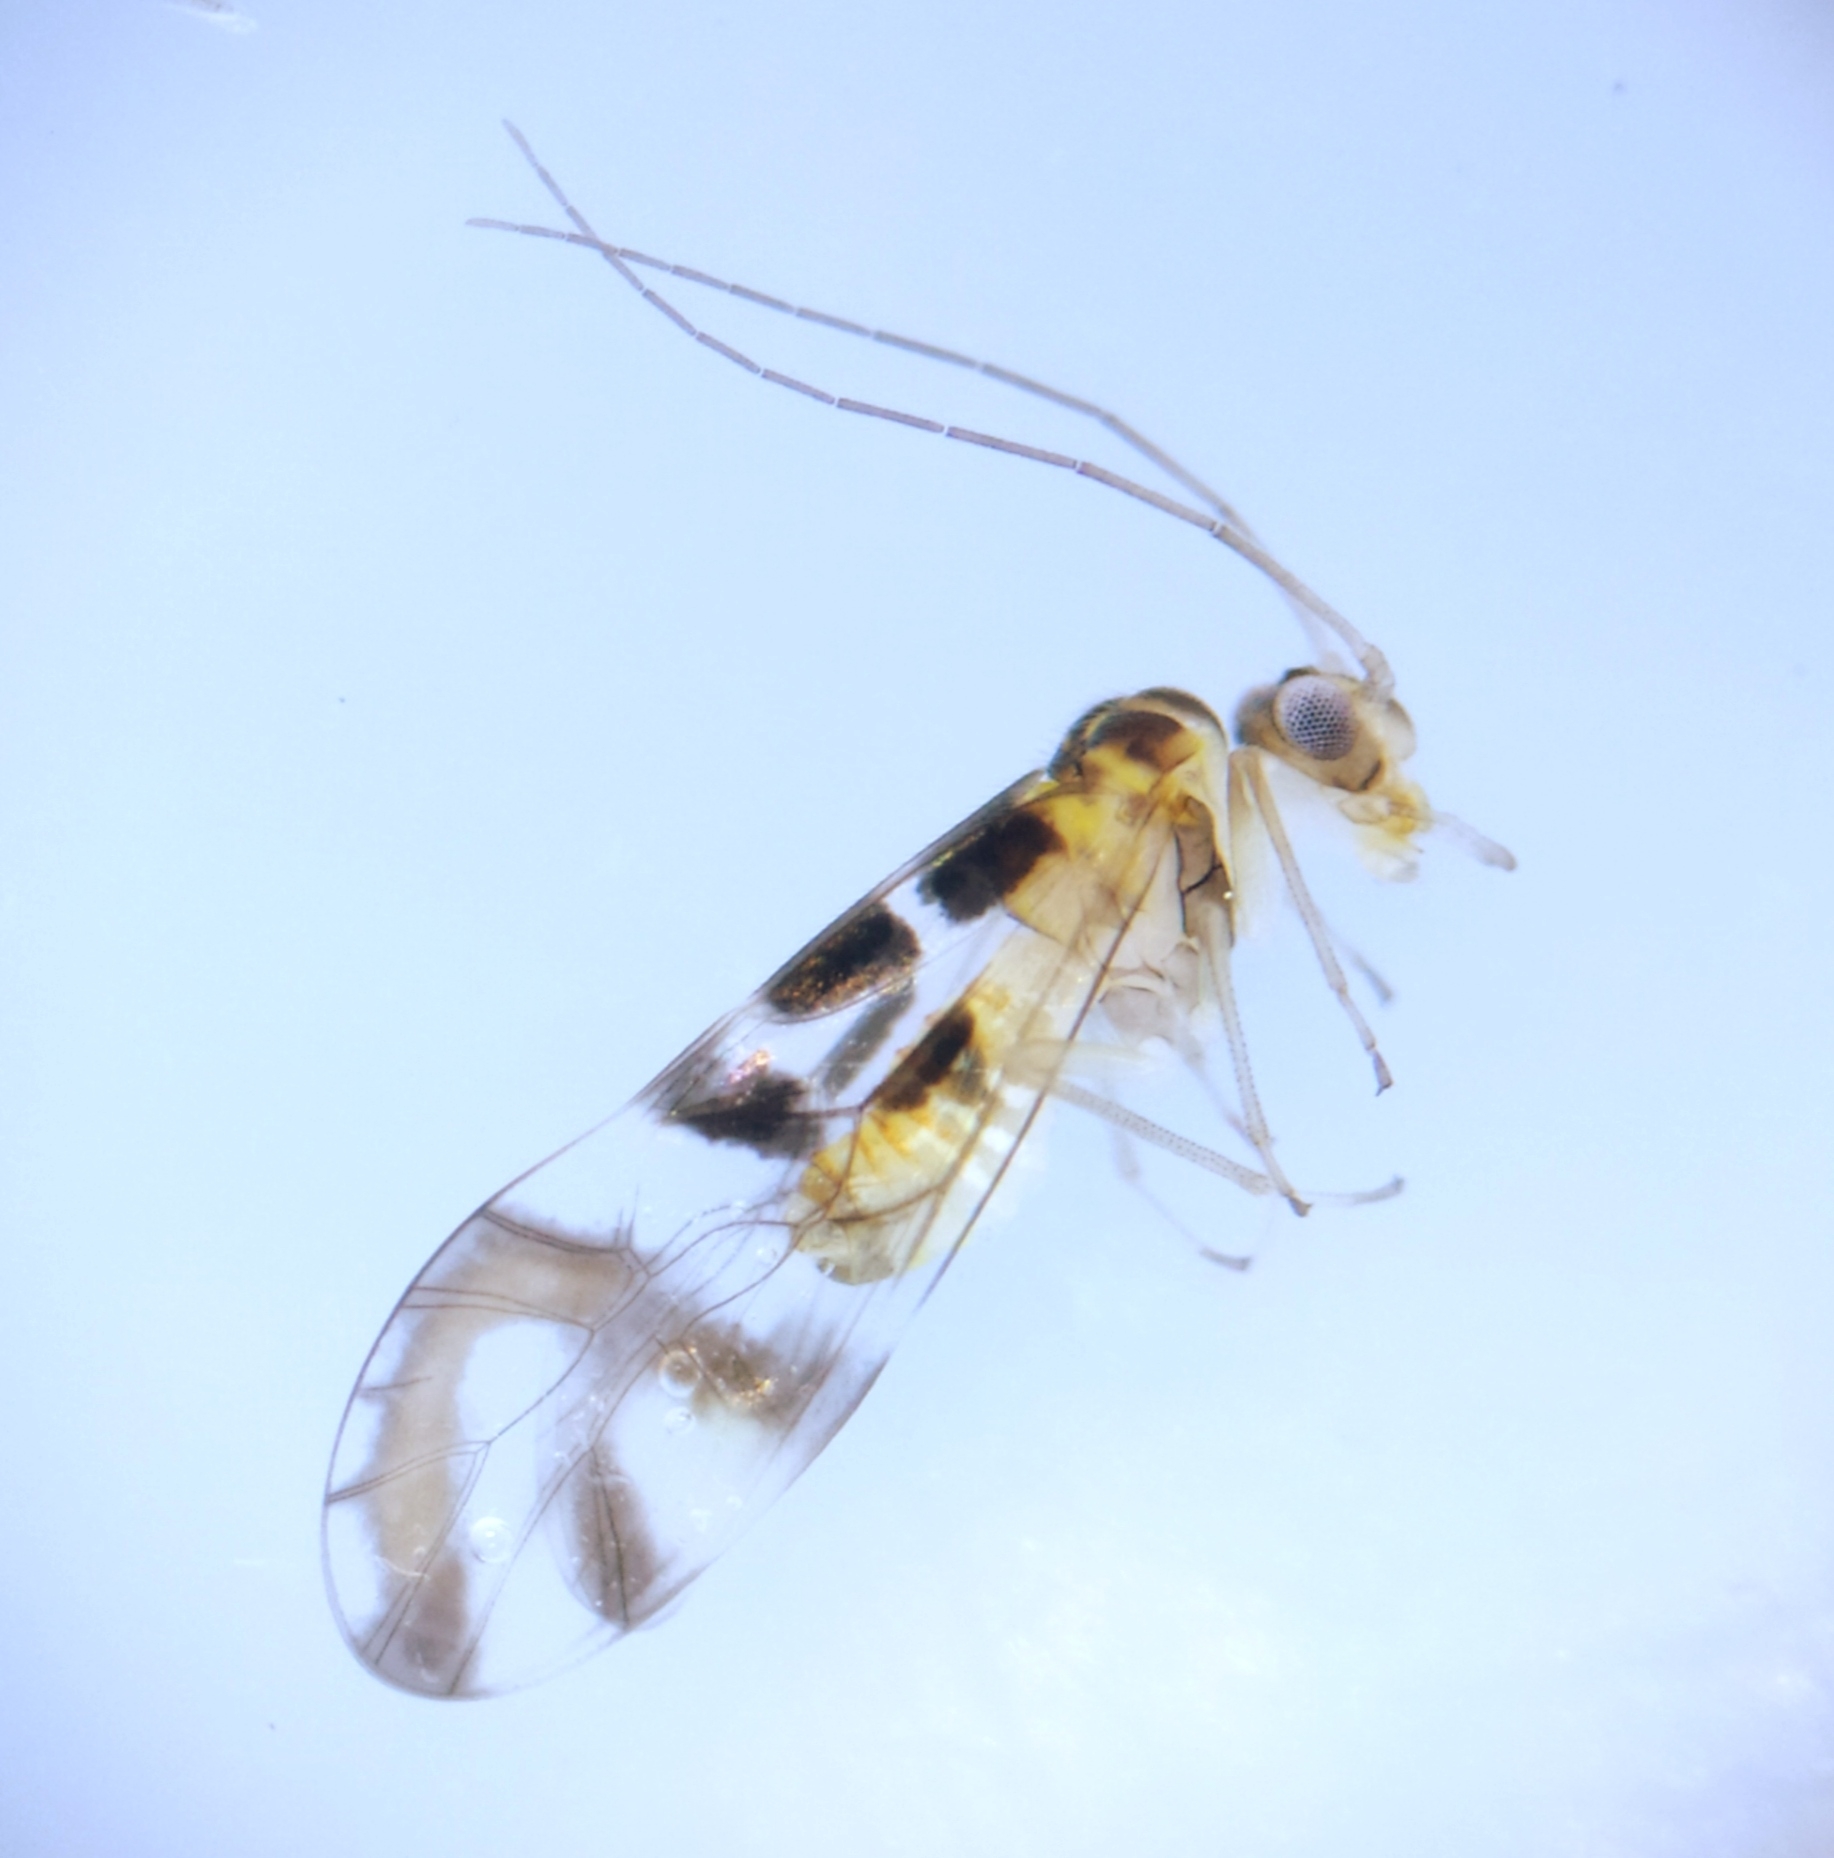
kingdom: Animalia
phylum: Arthropoda
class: Insecta
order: Psocodea
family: Stenopsocidae
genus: Graphopsocus
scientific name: Graphopsocus cruciatus
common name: Lizard bark louse
